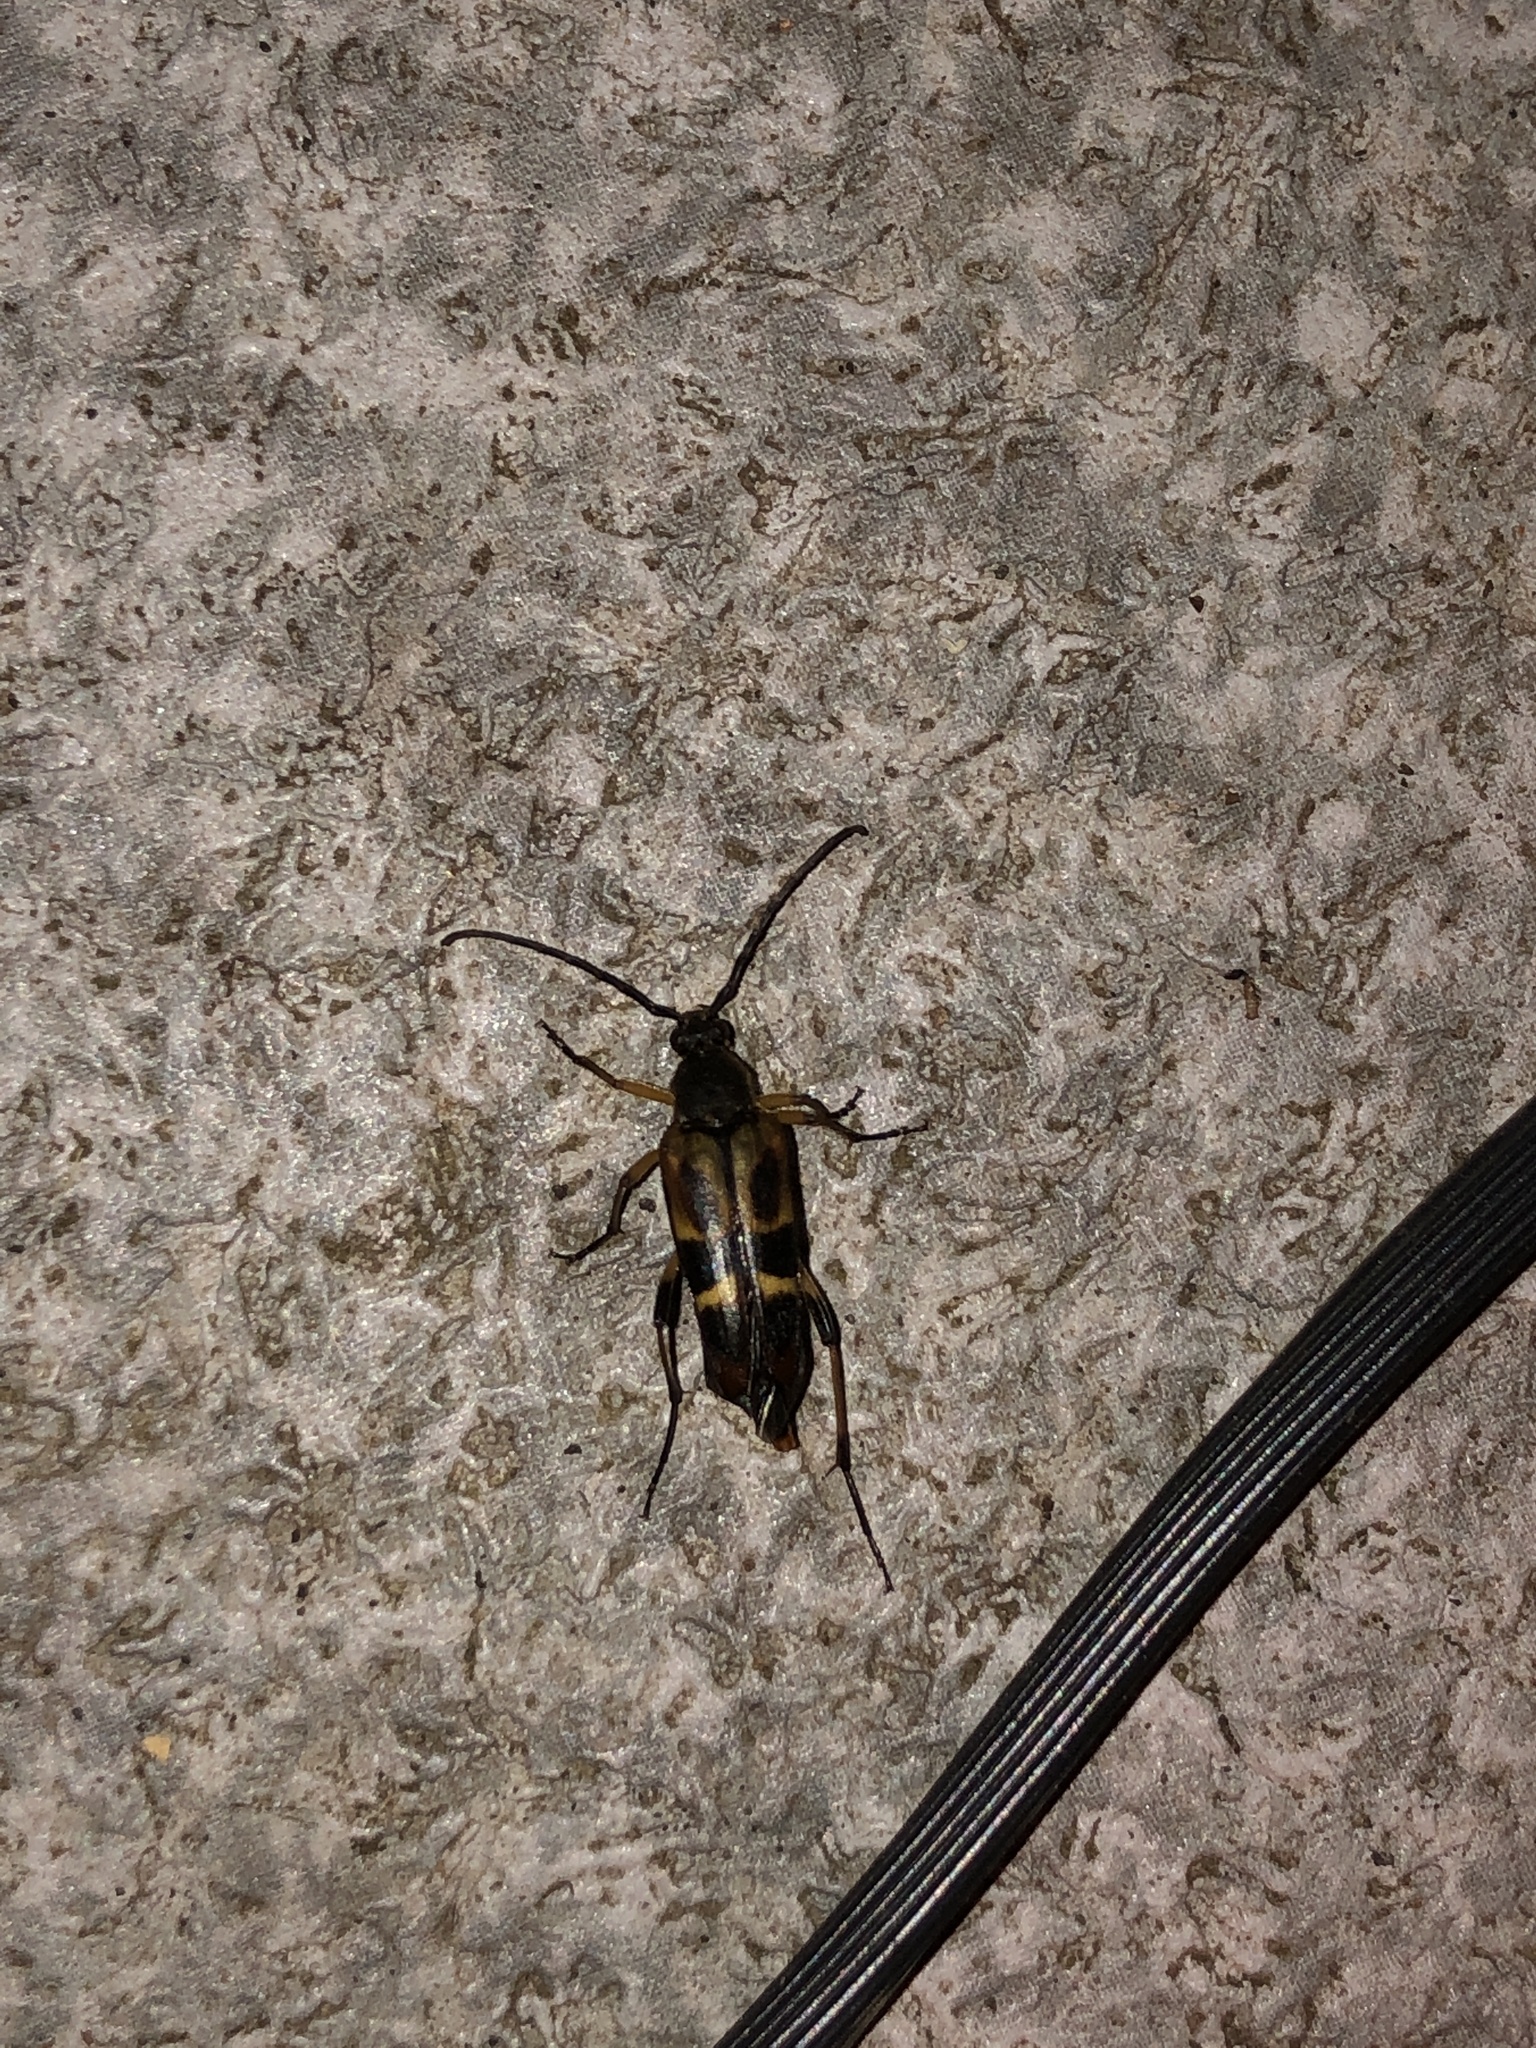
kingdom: Animalia
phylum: Arthropoda
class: Insecta
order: Coleoptera
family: Cerambycidae
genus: Etorofus
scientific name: Etorofus obliteratus
